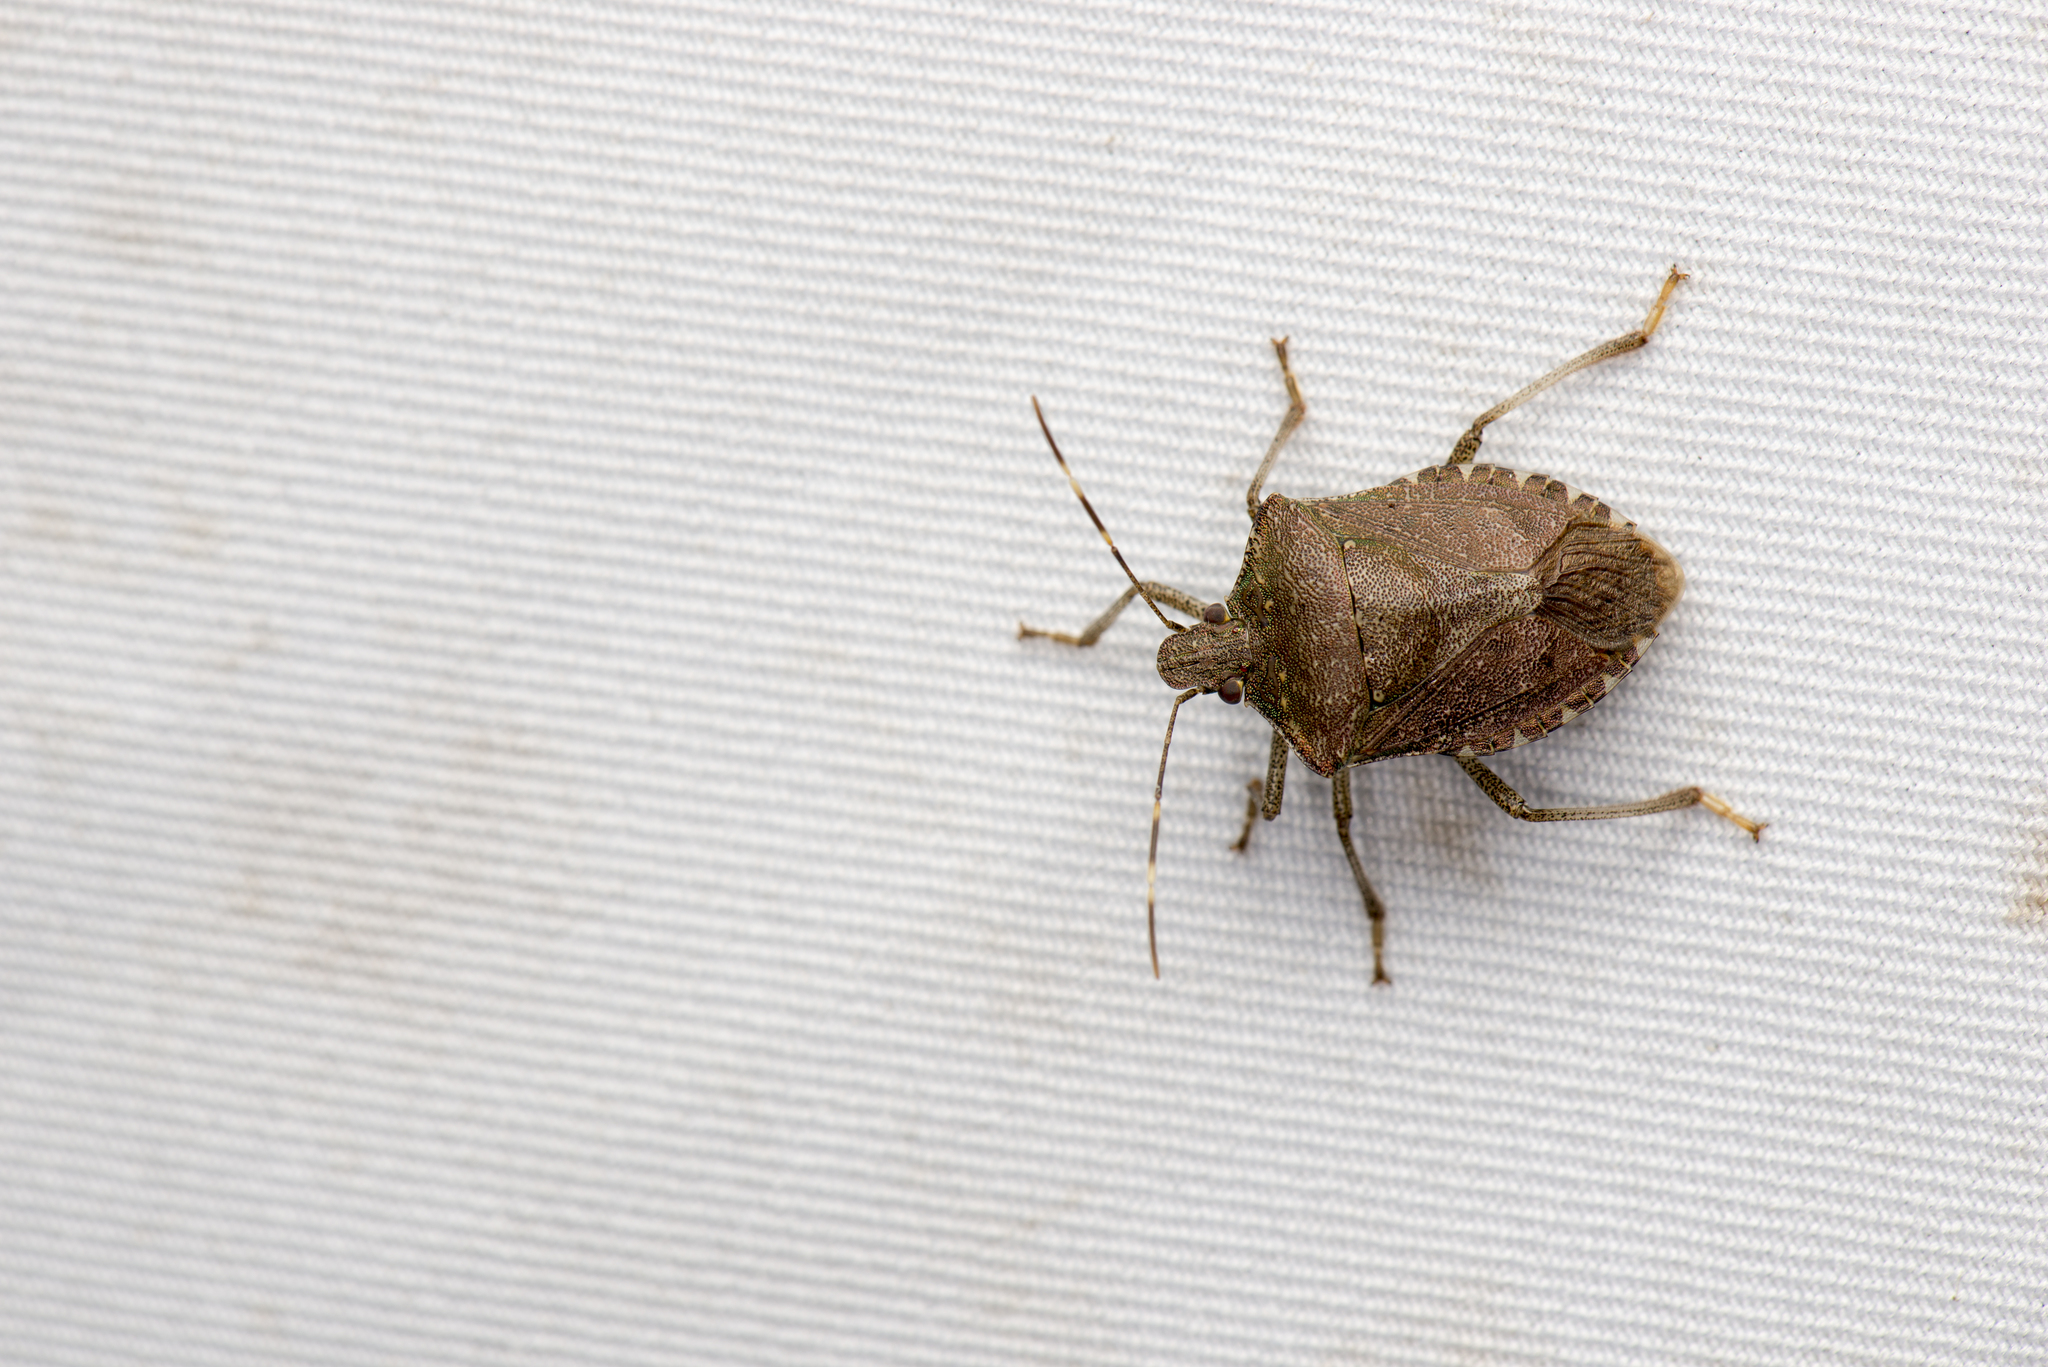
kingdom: Animalia
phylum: Arthropoda
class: Insecta
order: Hemiptera
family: Pentatomidae
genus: Halyomorpha
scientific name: Halyomorpha halys
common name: Brown marmorated stink bug
